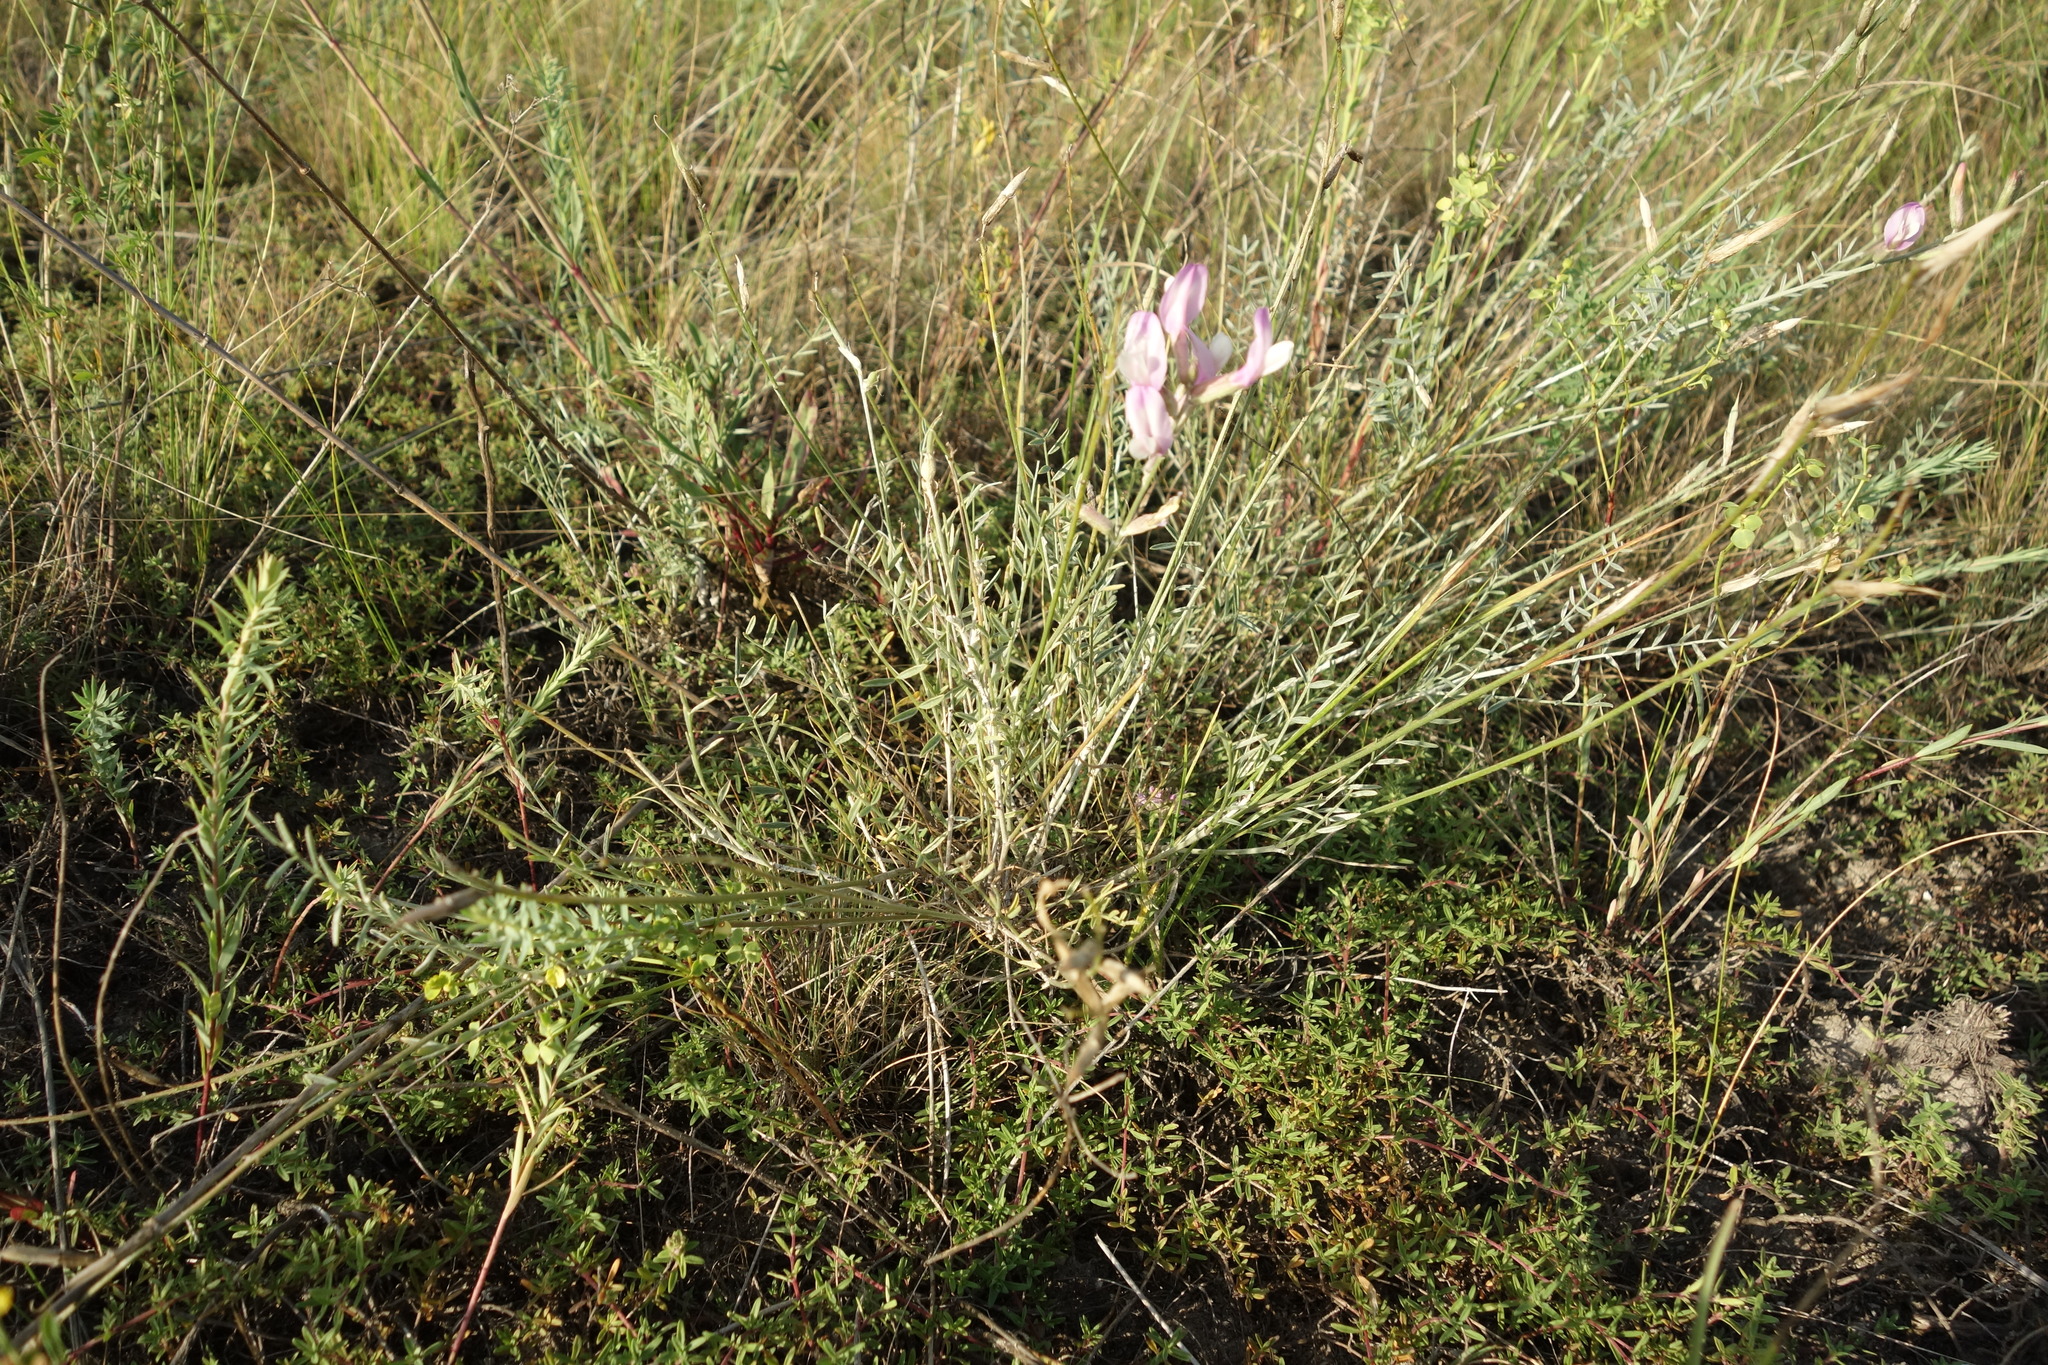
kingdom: Plantae
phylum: Tracheophyta
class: Magnoliopsida
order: Fabales
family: Fabaceae
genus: Astragalus
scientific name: Astragalus skvortsovii
